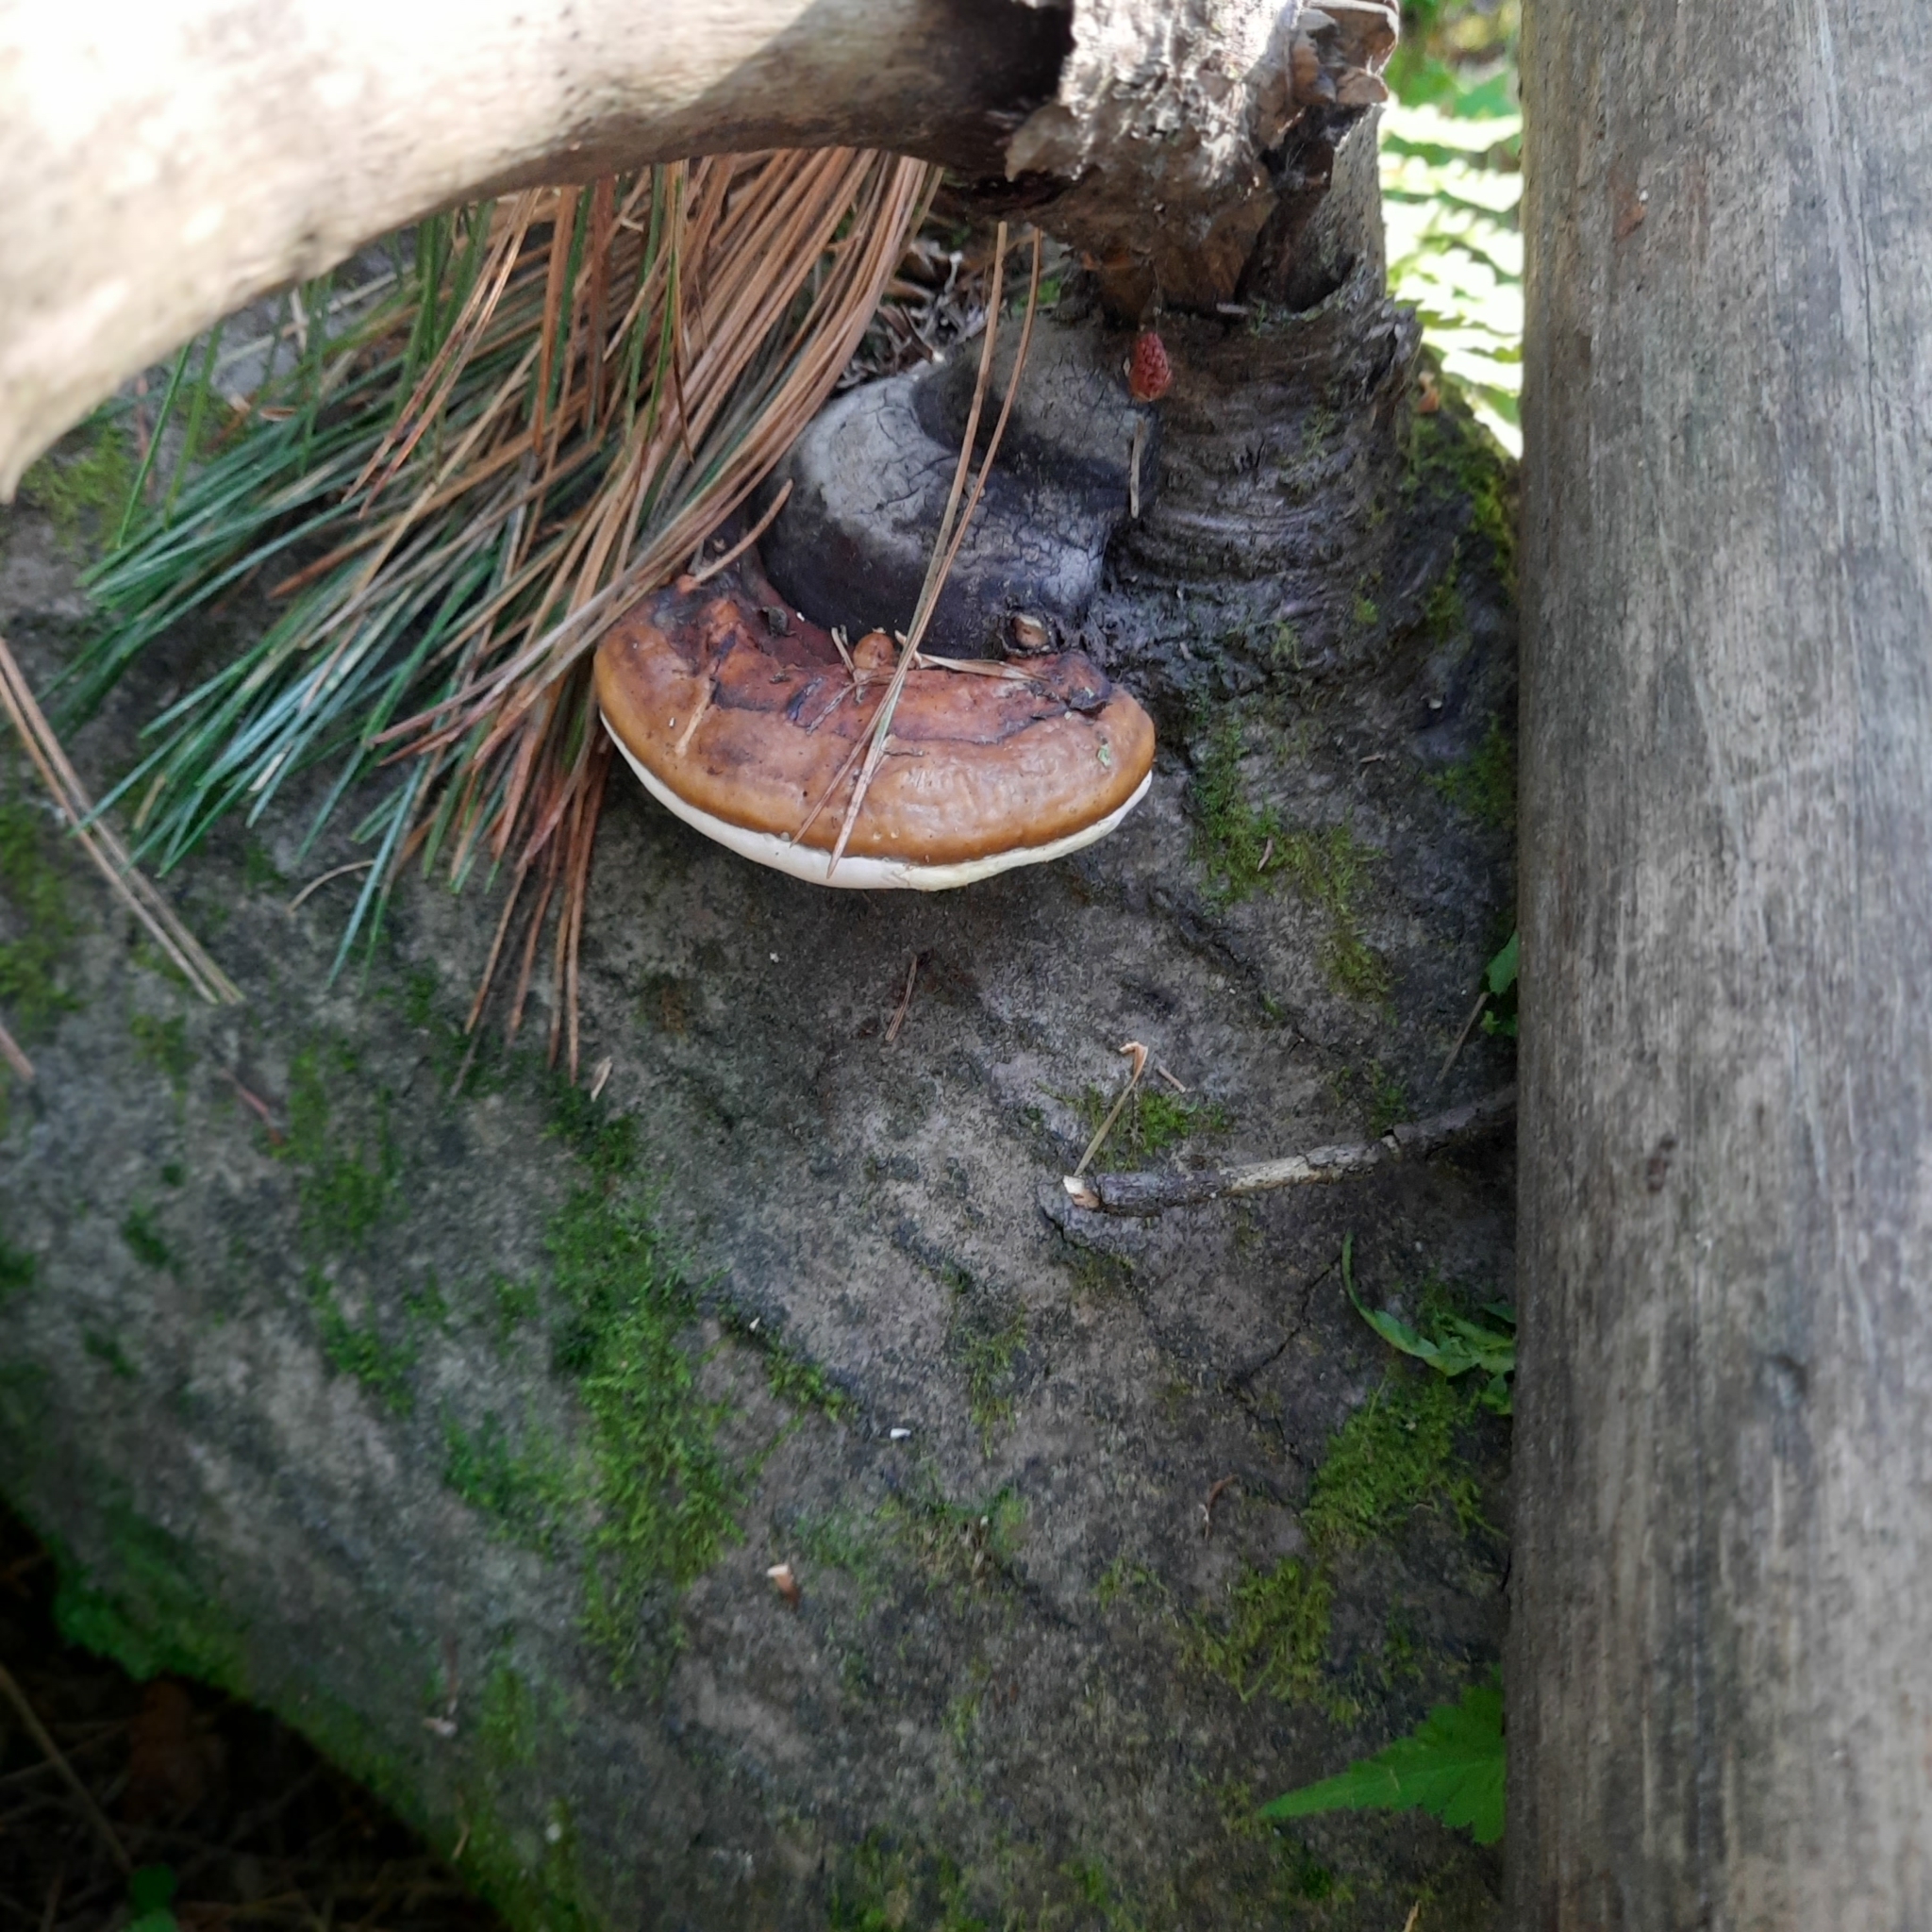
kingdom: Fungi
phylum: Basidiomycota
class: Agaricomycetes
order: Polyporales
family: Fomitopsidaceae
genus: Fomitopsis
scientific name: Fomitopsis pinicola
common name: Red-belted bracket
